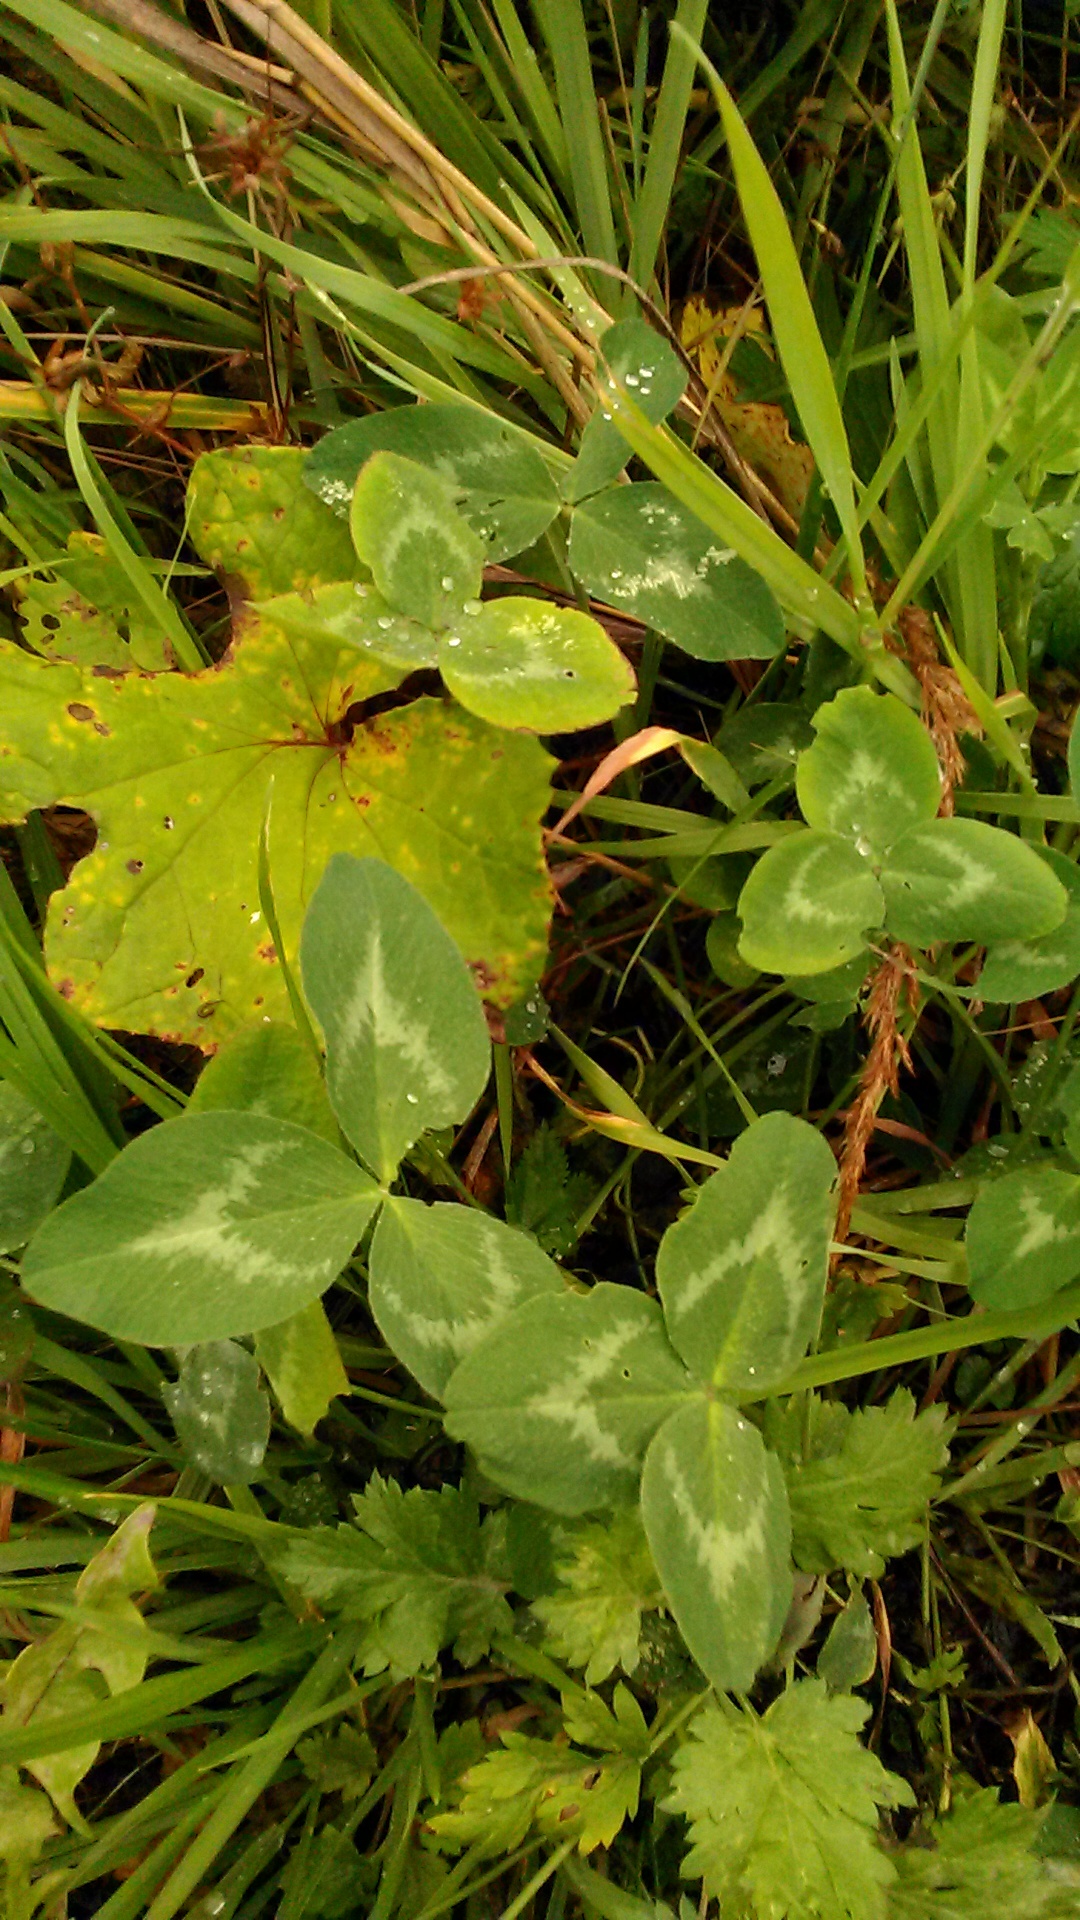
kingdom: Plantae
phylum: Tracheophyta
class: Magnoliopsida
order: Fabales
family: Fabaceae
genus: Trifolium
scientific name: Trifolium pratense
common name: Red clover
